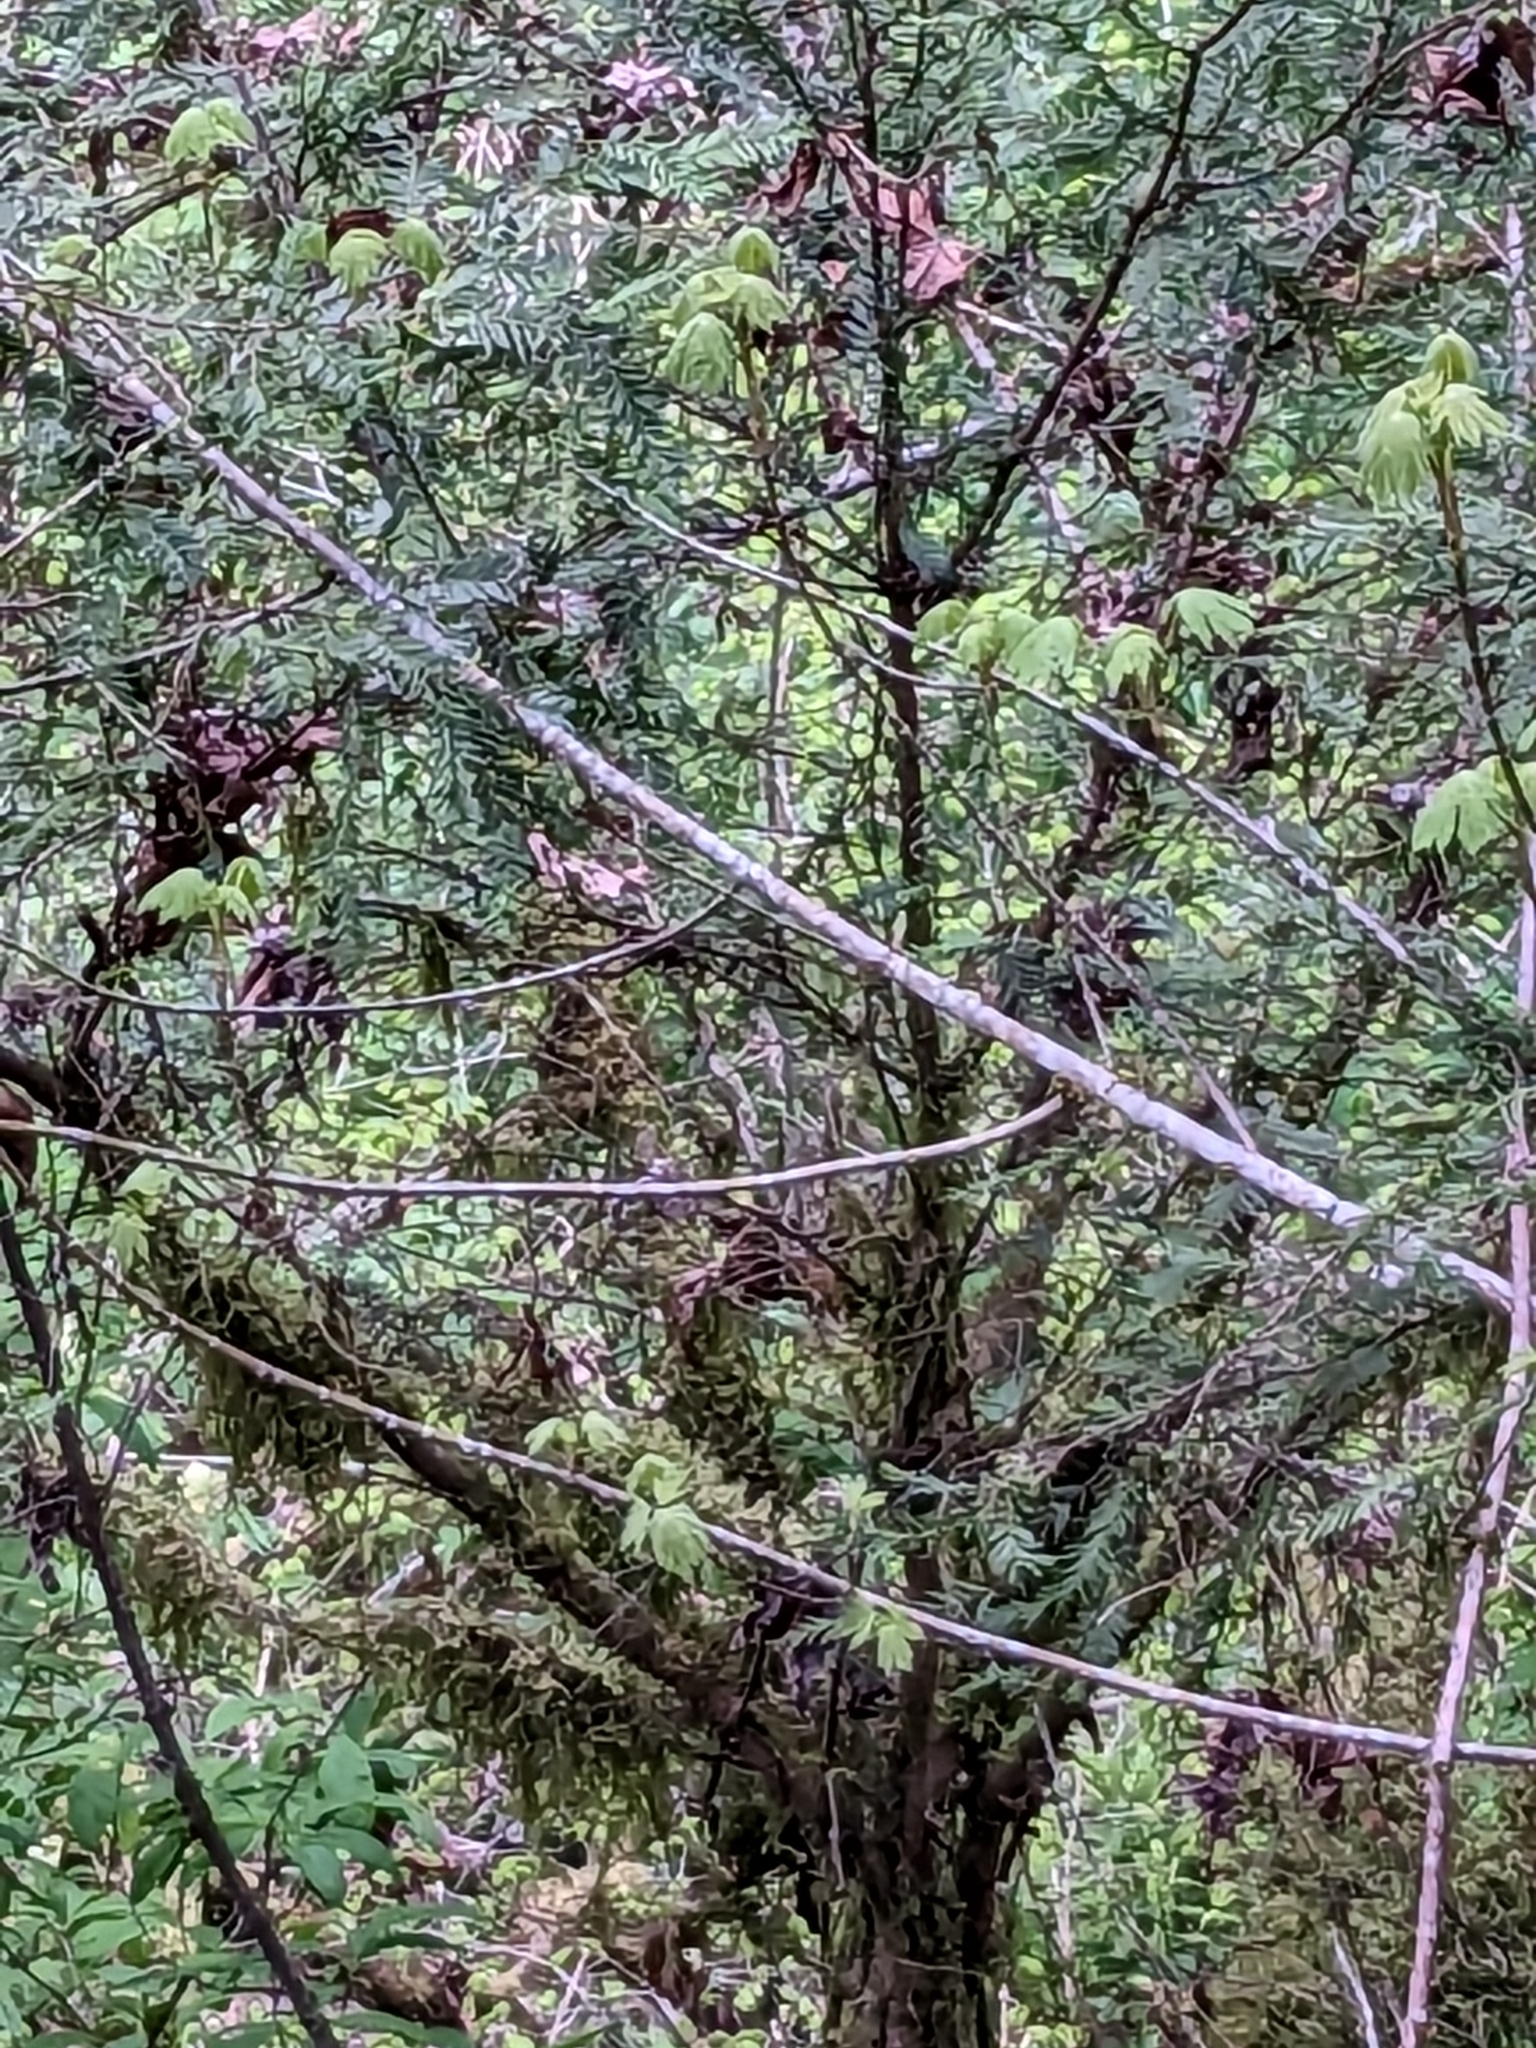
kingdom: Plantae
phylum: Tracheophyta
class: Pinopsida
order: Pinales
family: Taxaceae
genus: Taxus
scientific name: Taxus brevifolia
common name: Pacific yew
